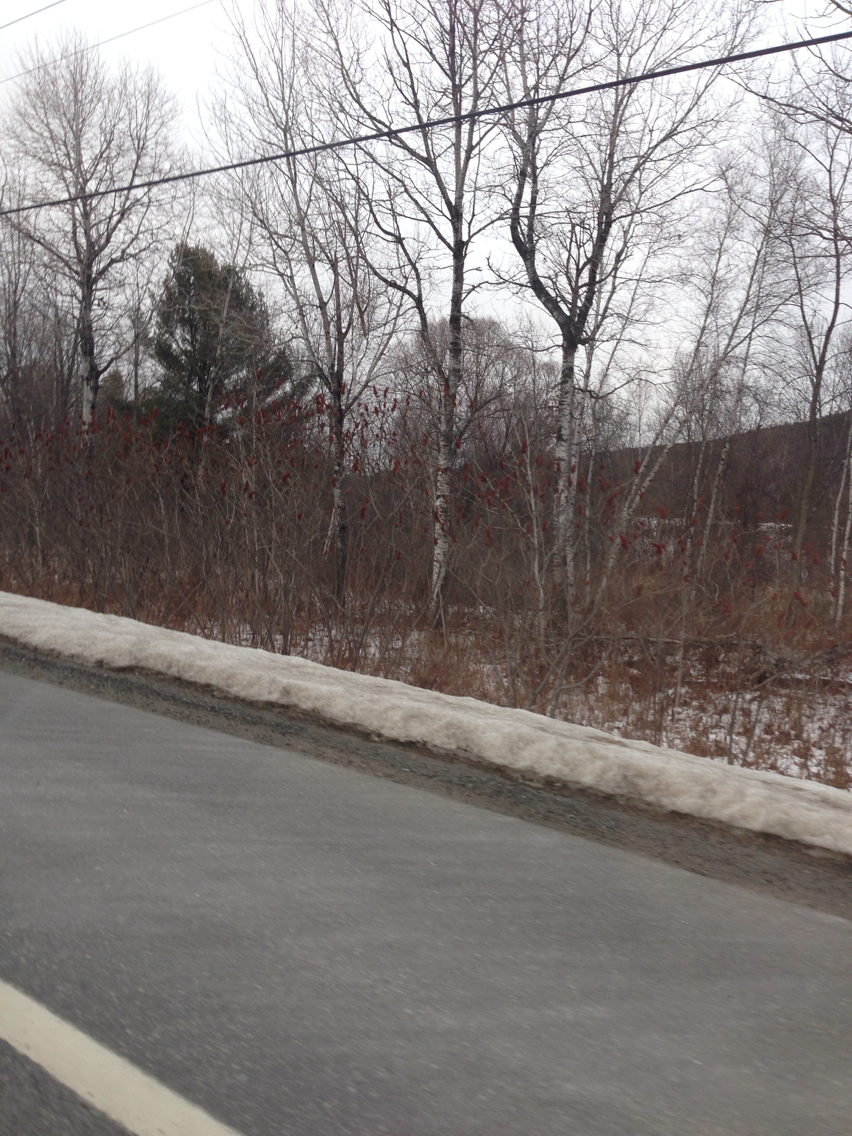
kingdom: Plantae
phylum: Tracheophyta
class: Magnoliopsida
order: Sapindales
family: Anacardiaceae
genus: Rhus
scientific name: Rhus typhina
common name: Staghorn sumac
